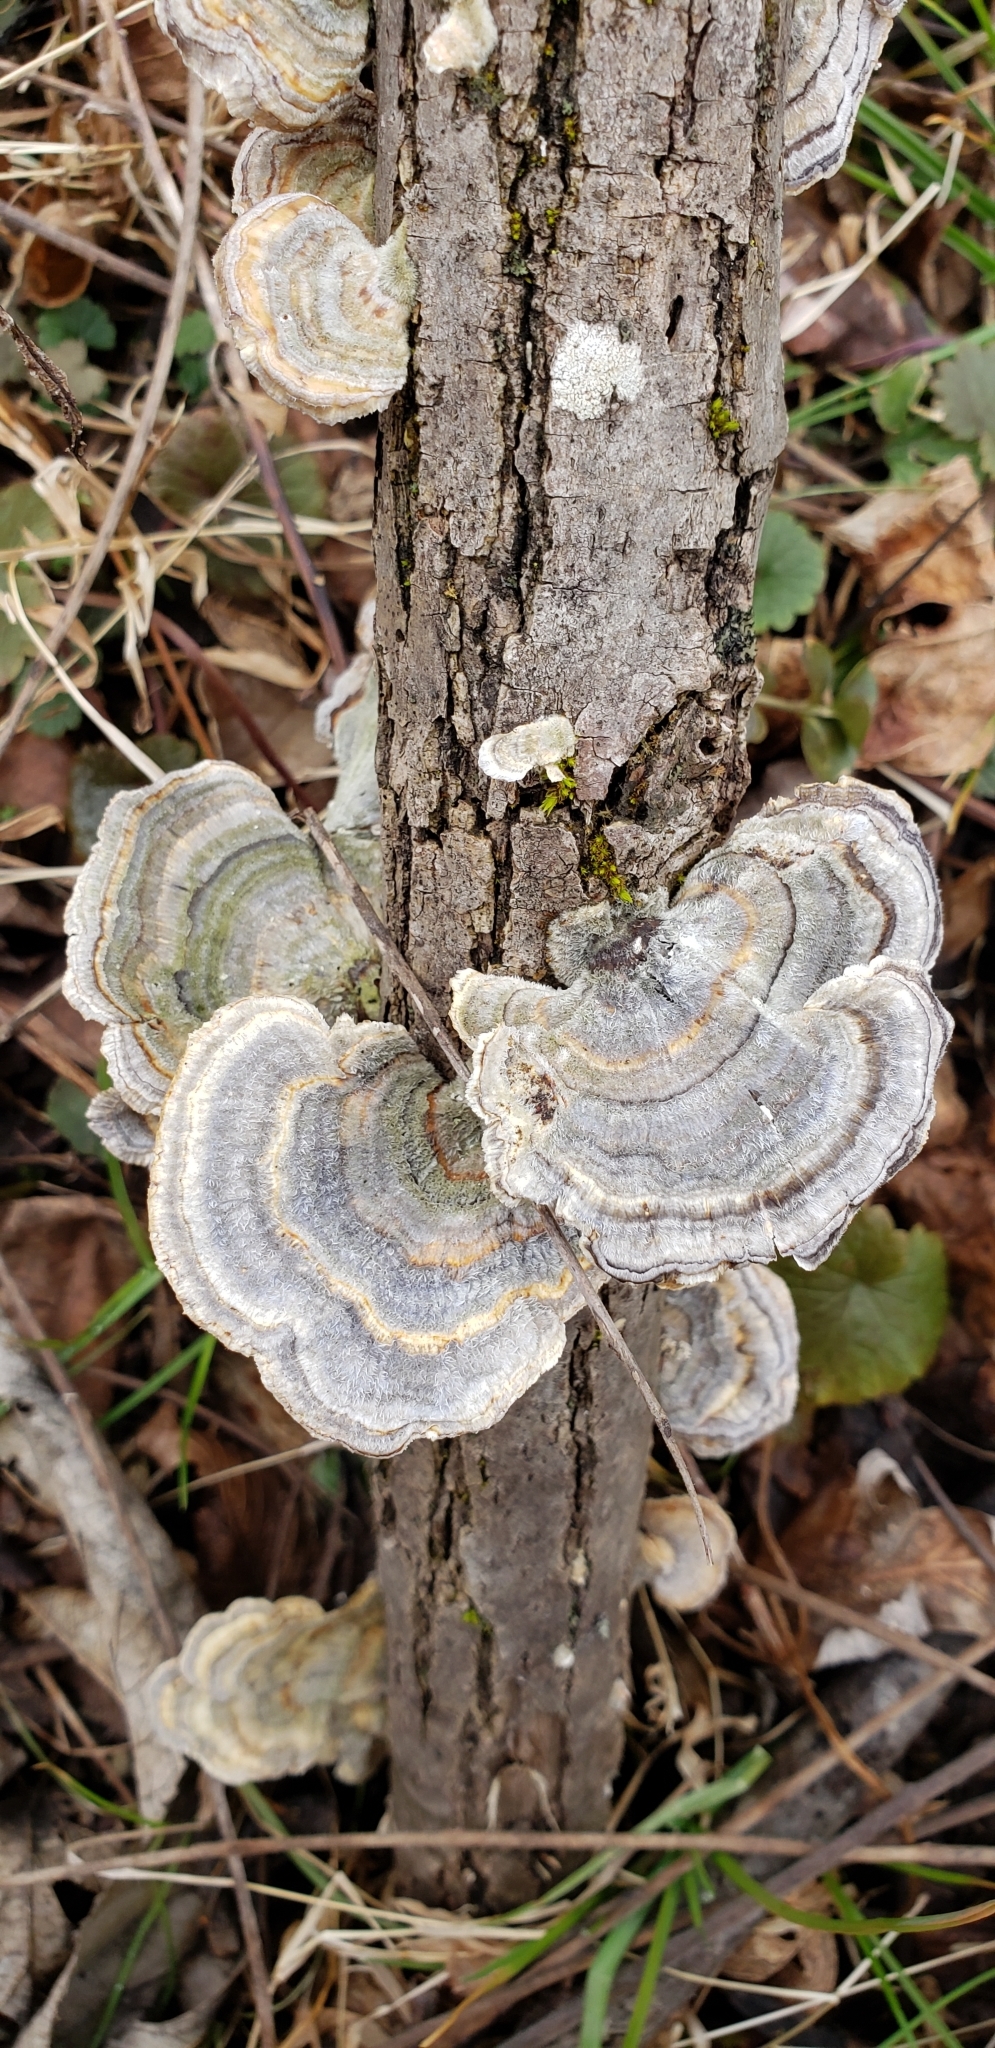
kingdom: Fungi
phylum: Basidiomycota
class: Agaricomycetes
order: Polyporales
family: Polyporaceae
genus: Trametes
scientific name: Trametes versicolor
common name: Turkeytail
